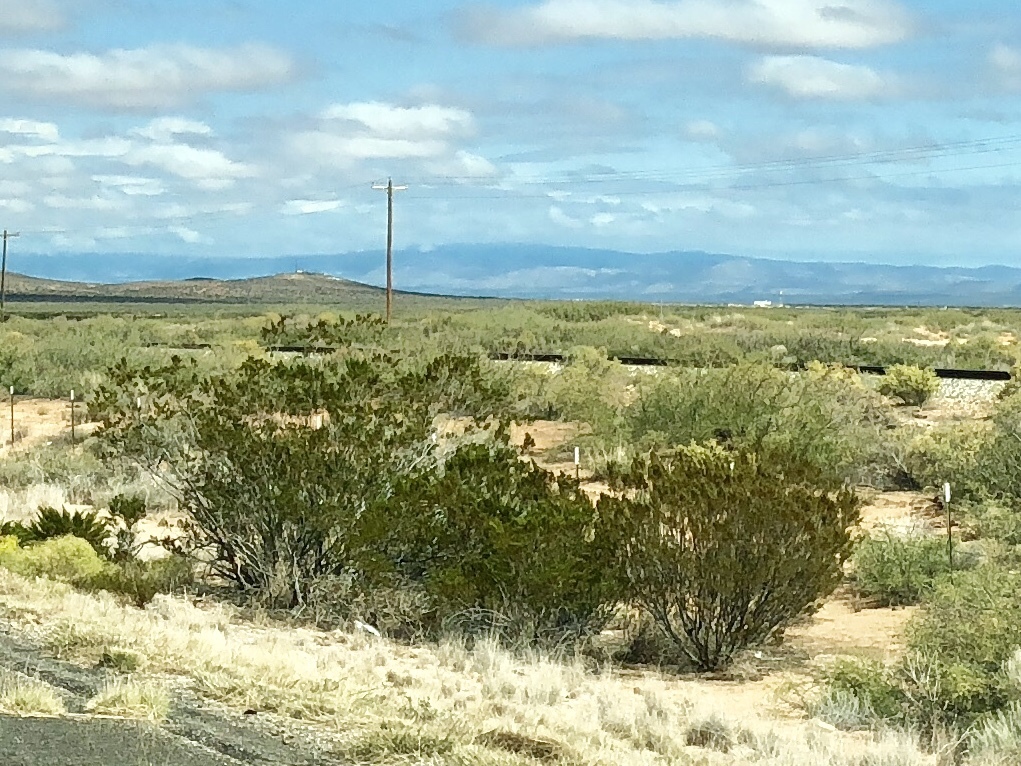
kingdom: Plantae
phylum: Tracheophyta
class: Magnoliopsida
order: Zygophyllales
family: Zygophyllaceae
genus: Larrea
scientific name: Larrea tridentata
